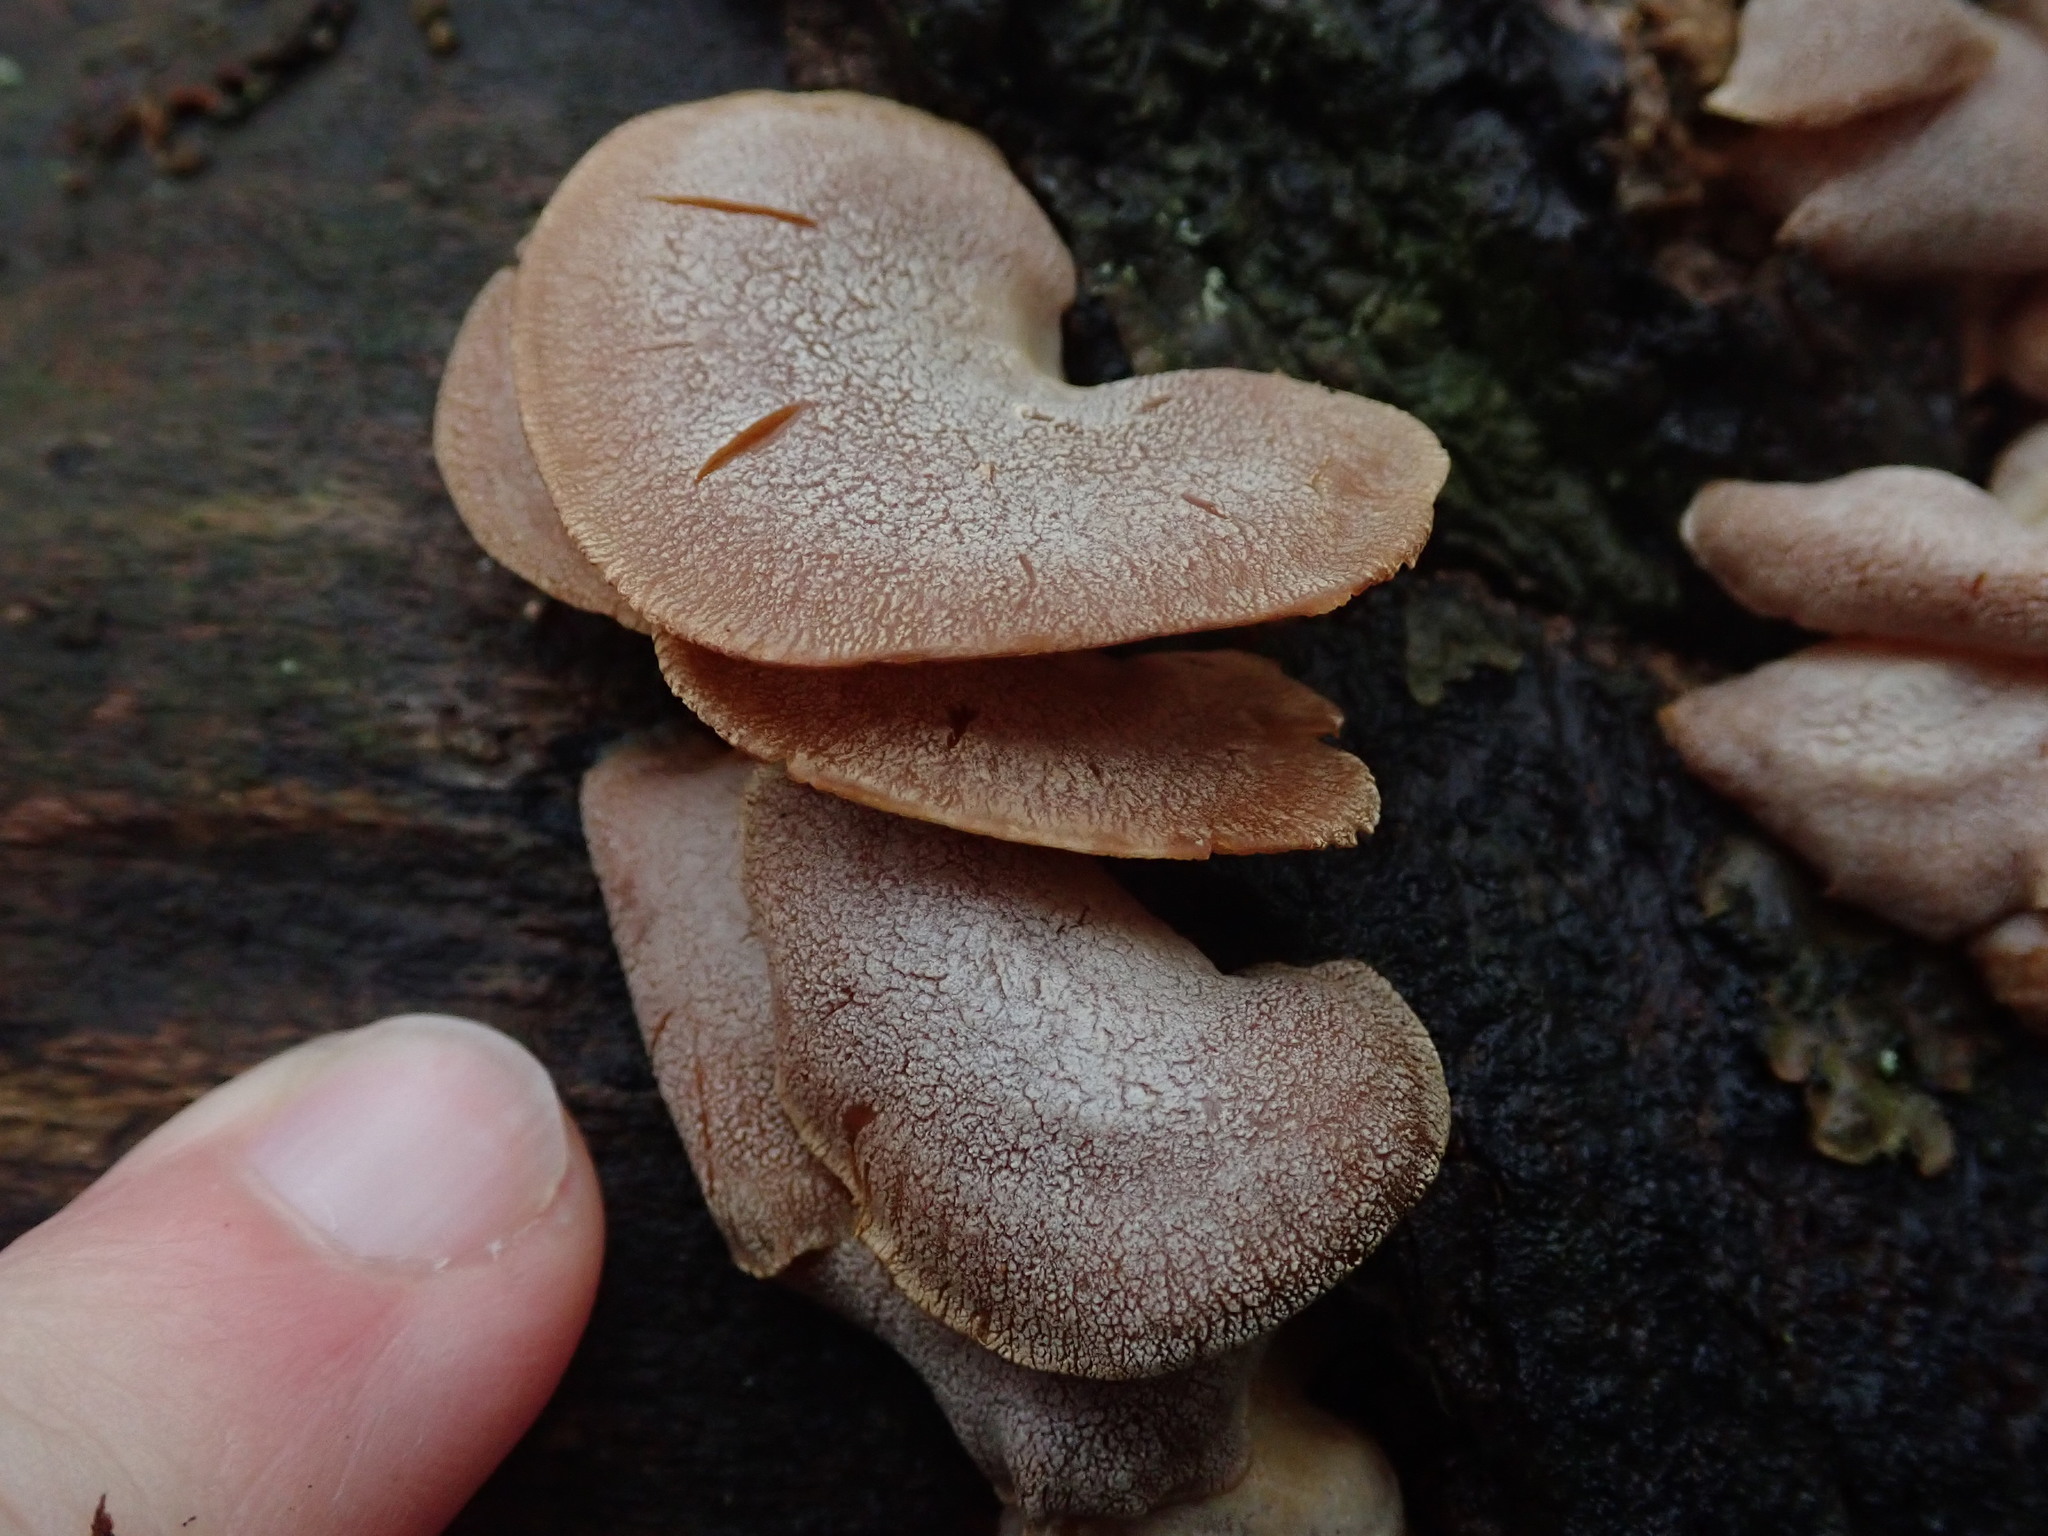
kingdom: Fungi
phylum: Basidiomycota
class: Agaricomycetes
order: Agaricales
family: Mycenaceae
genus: Panellus
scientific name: Panellus stipticus
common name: Bitter oysterling
